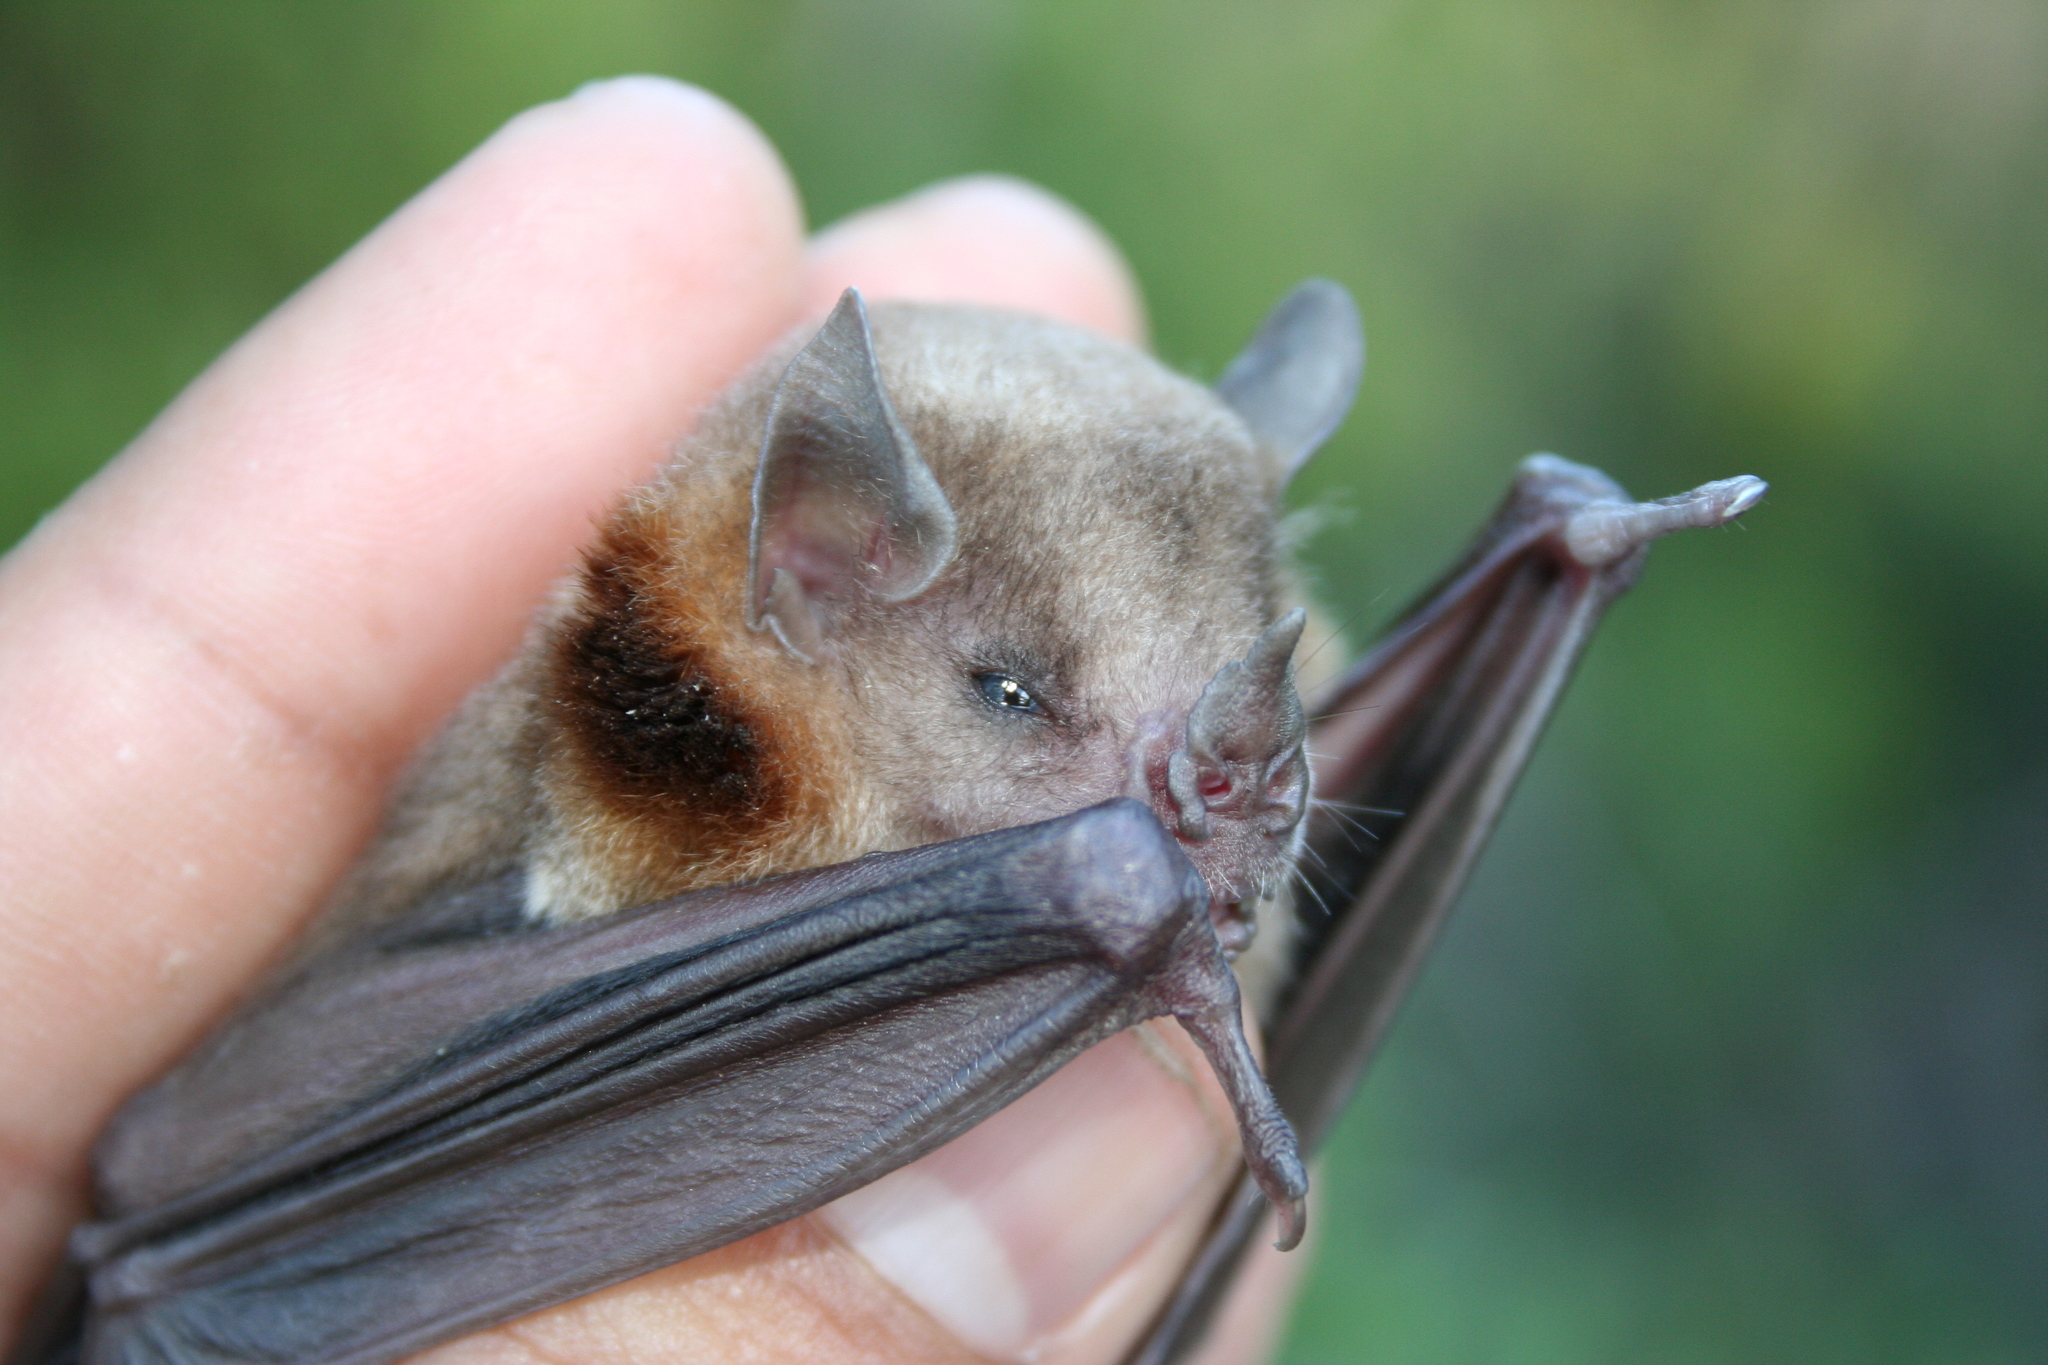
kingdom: Animalia
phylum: Chordata
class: Mammalia
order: Chiroptera
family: Phyllostomidae
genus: Sturnira
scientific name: Sturnira parvidens
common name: Northern yellow-shouldered bat
